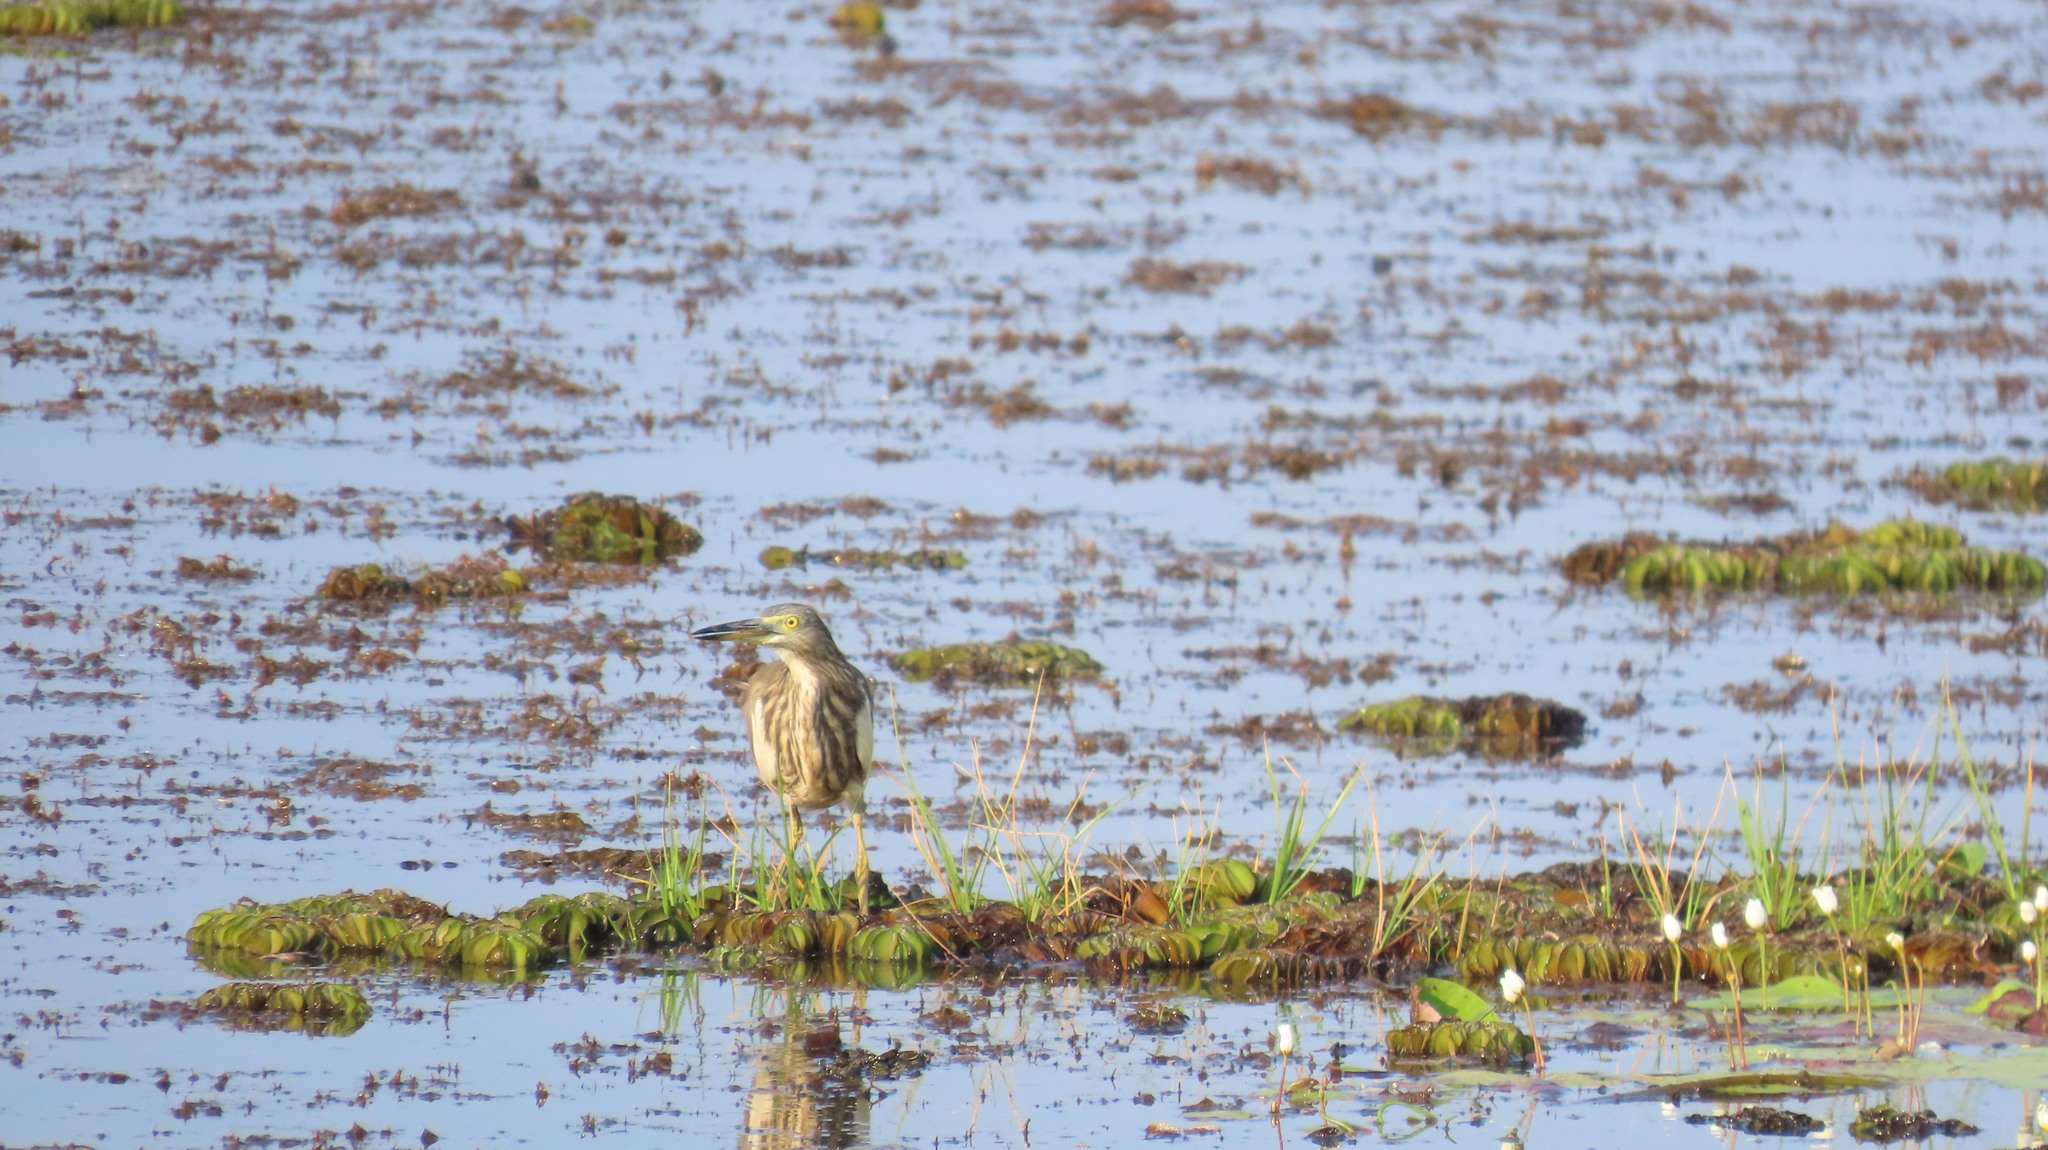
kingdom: Animalia
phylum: Chordata
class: Aves
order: Pelecaniformes
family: Ardeidae
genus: Ardeola
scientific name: Ardeola grayii
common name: Indian pond heron
